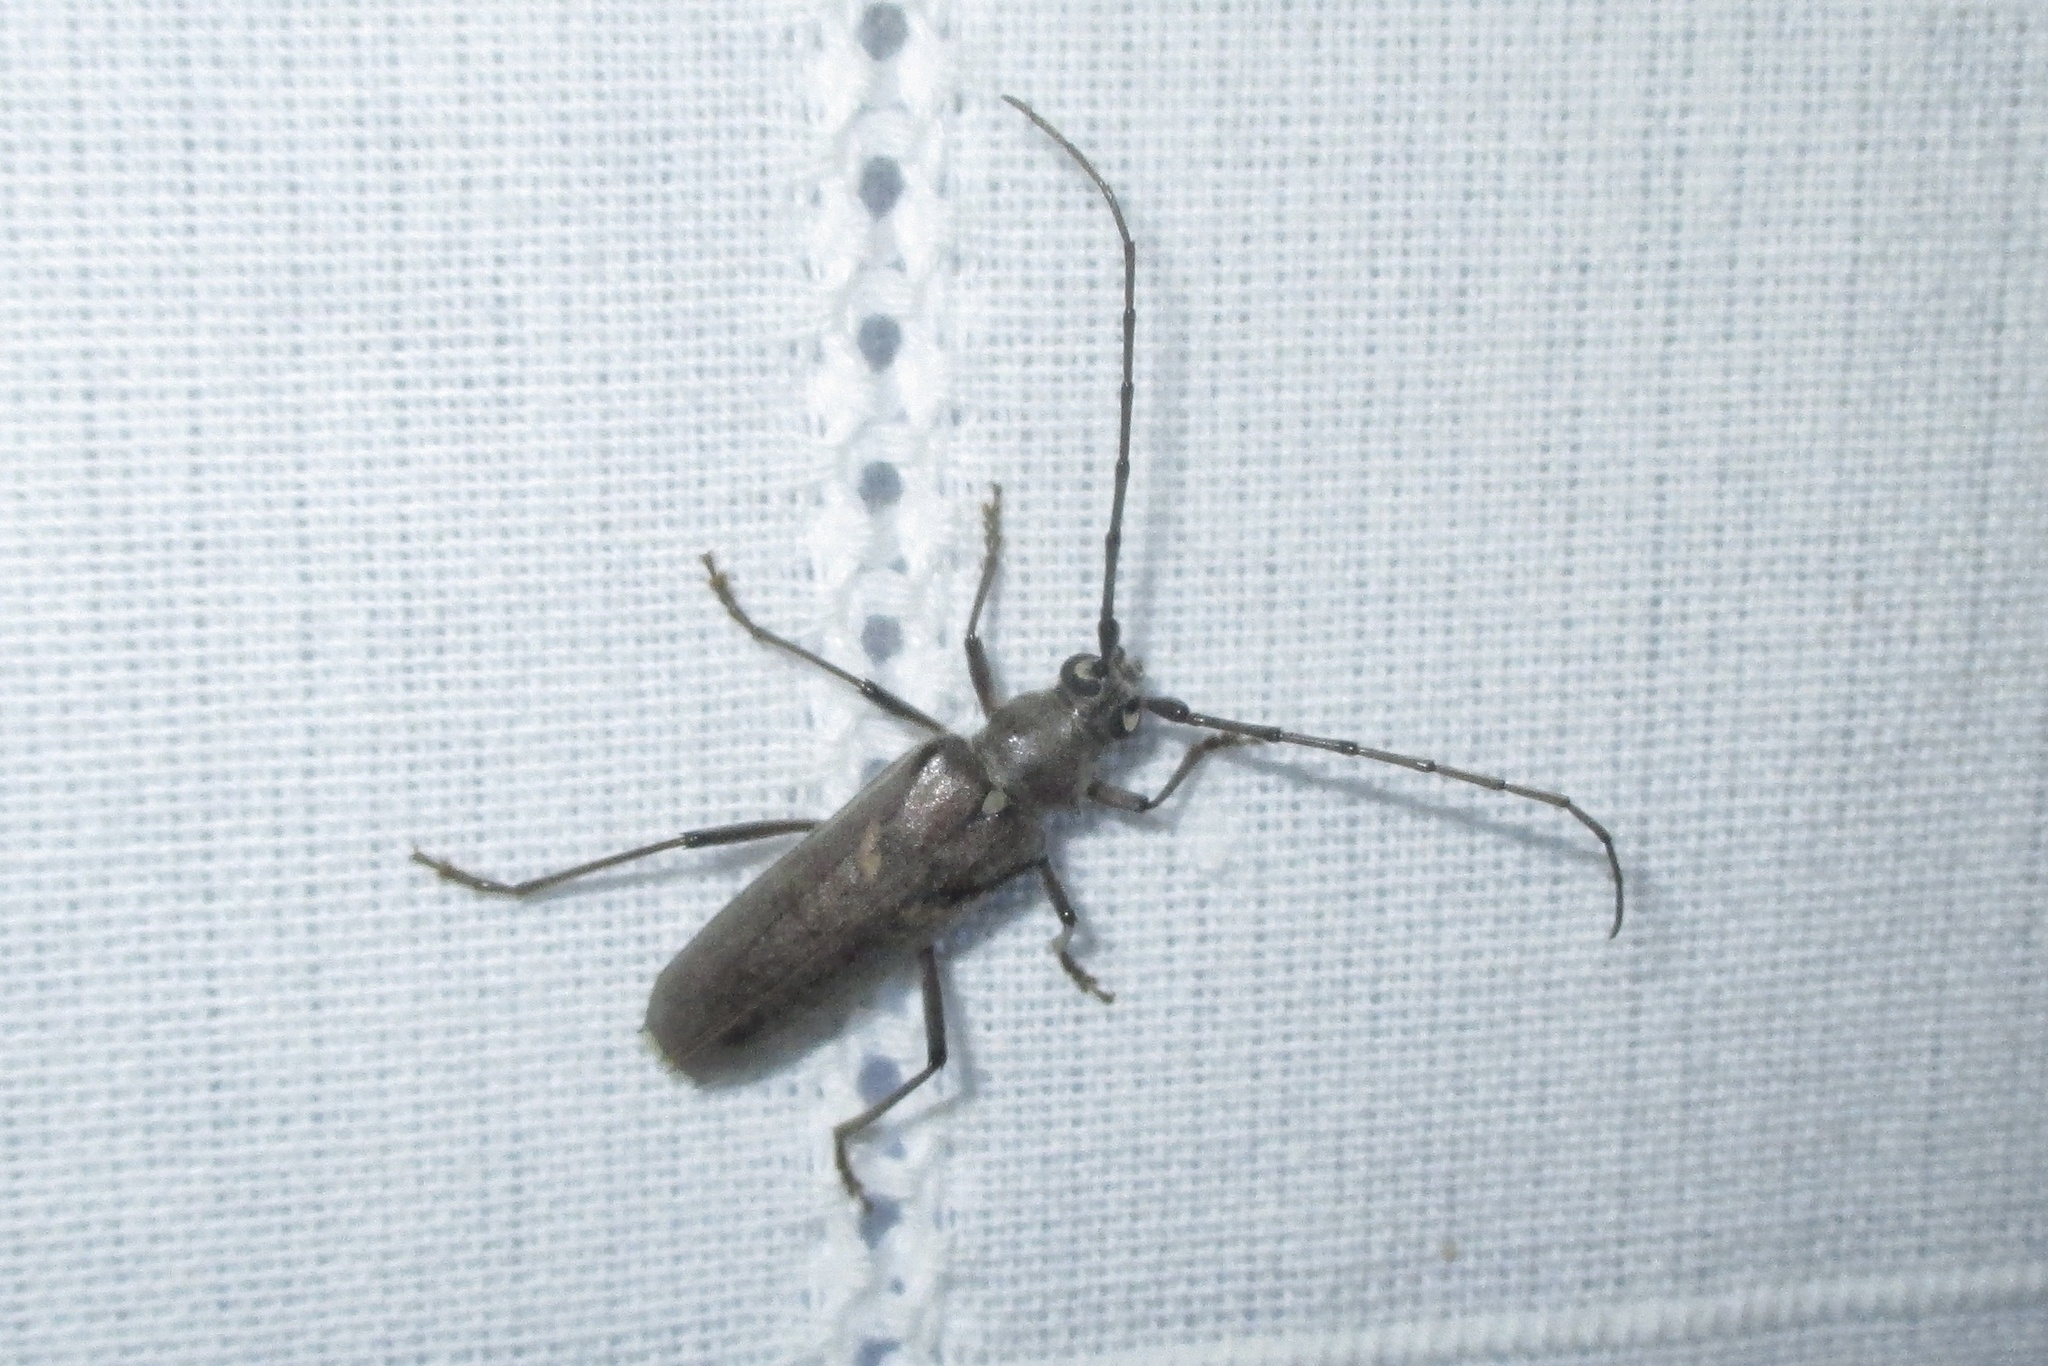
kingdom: Animalia
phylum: Arthropoda
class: Insecta
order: Coleoptera
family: Cerambycidae
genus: Knulliana
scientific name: Knulliana cincta
